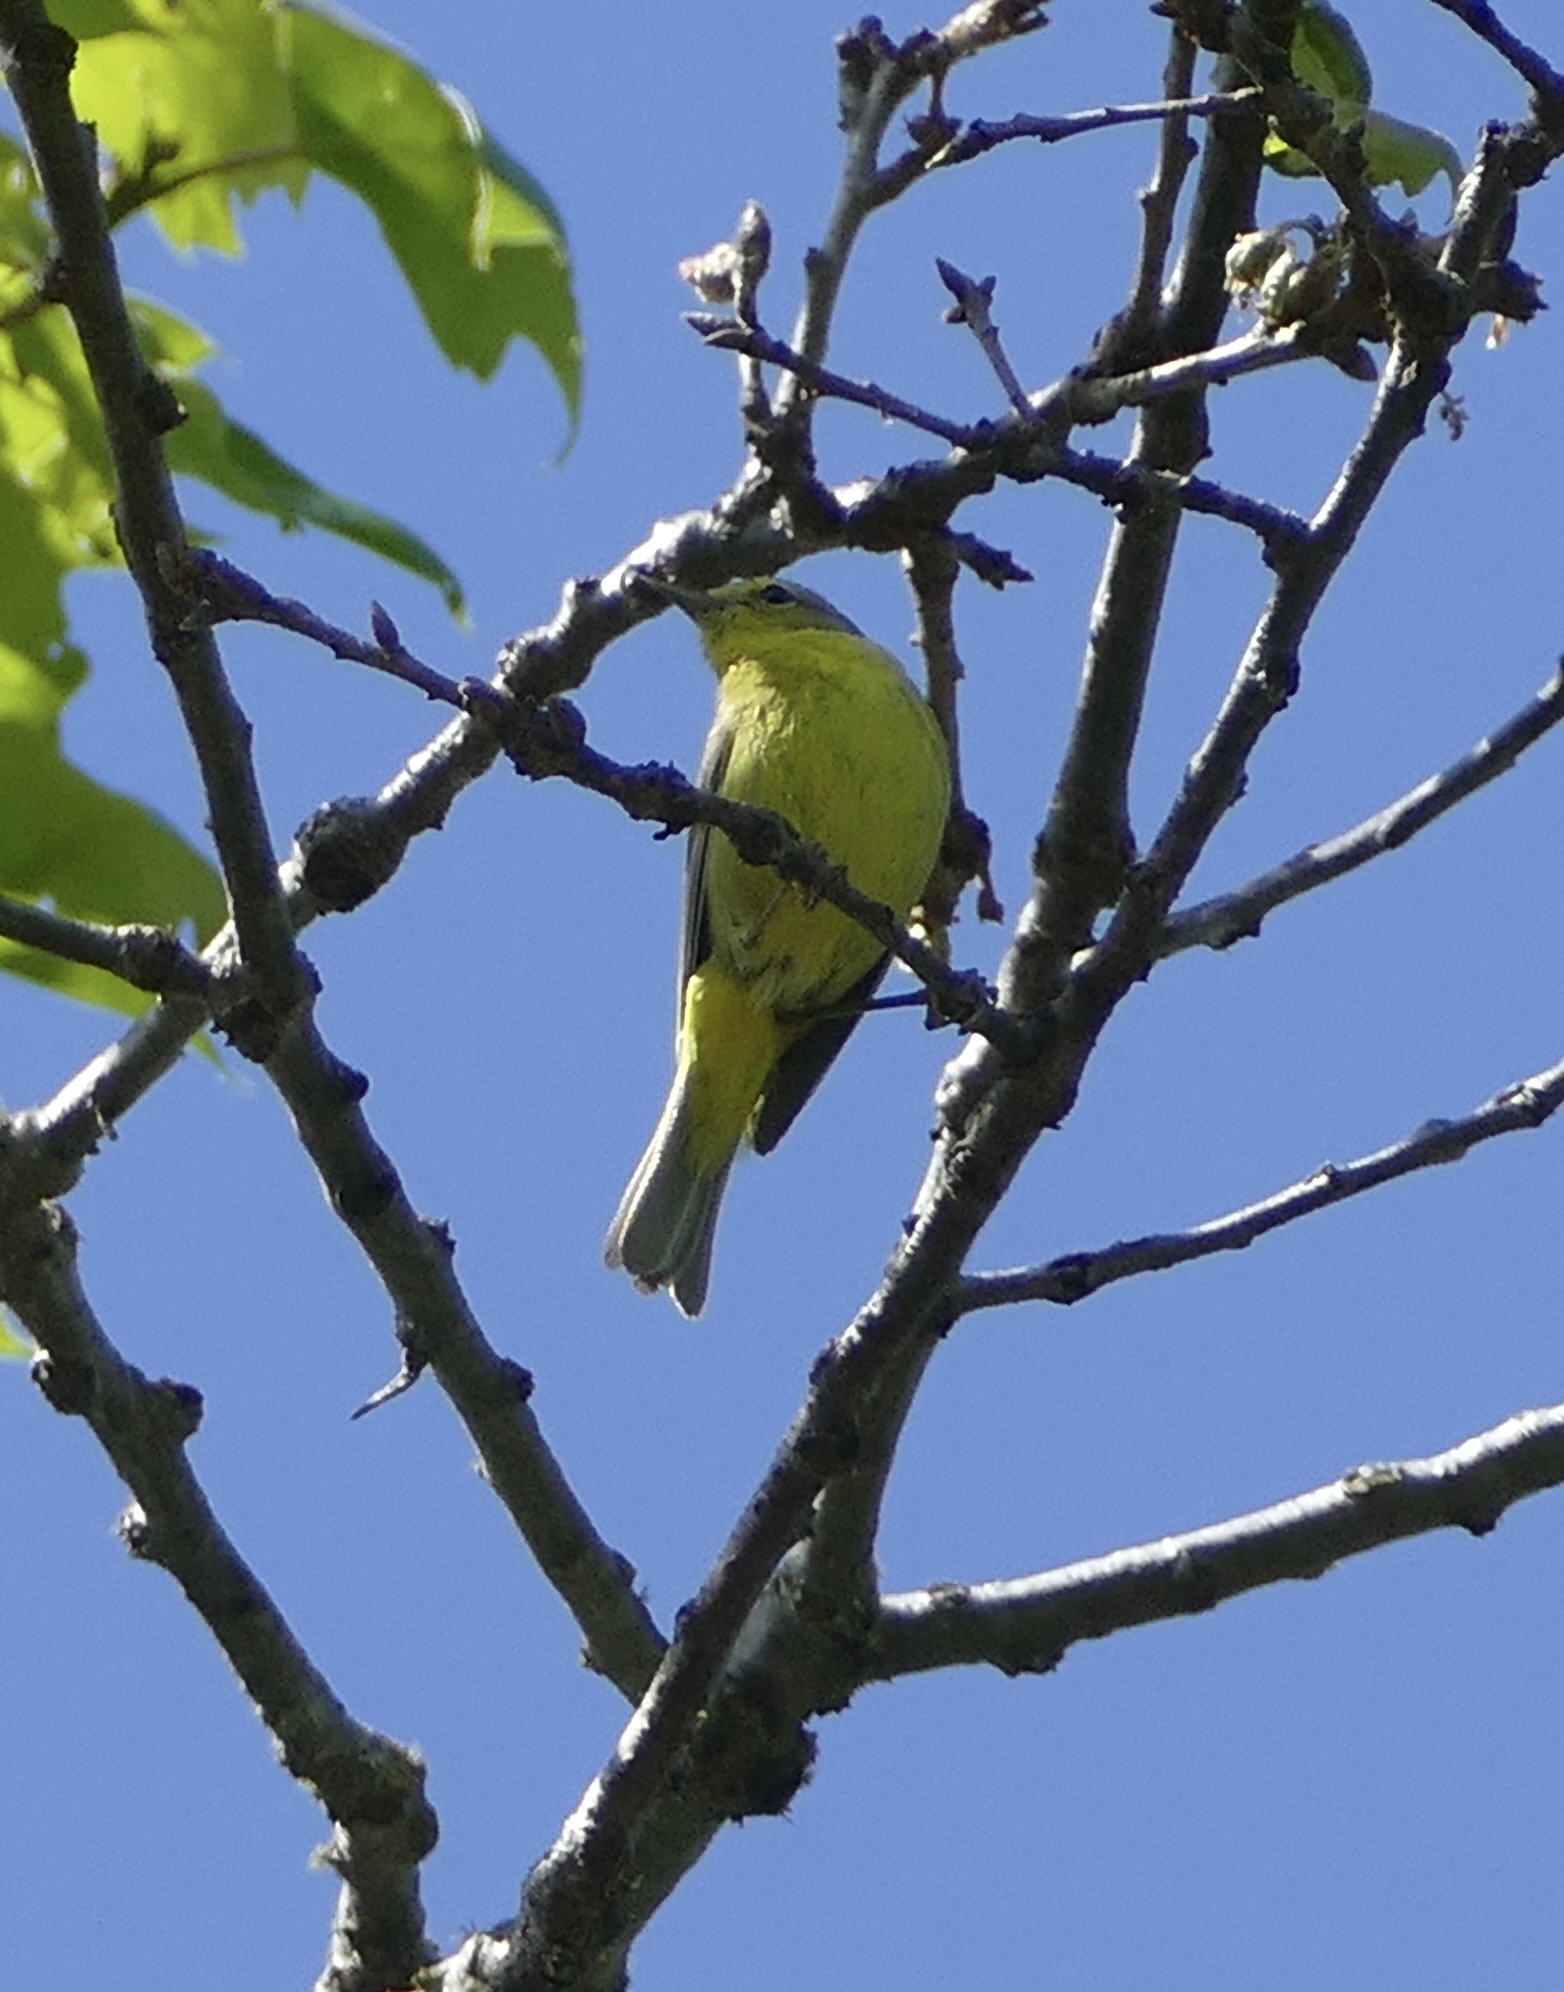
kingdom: Animalia
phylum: Chordata
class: Aves
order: Passeriformes
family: Parulidae
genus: Leiothlypis
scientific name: Leiothlypis celata
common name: Orange-crowned warbler
